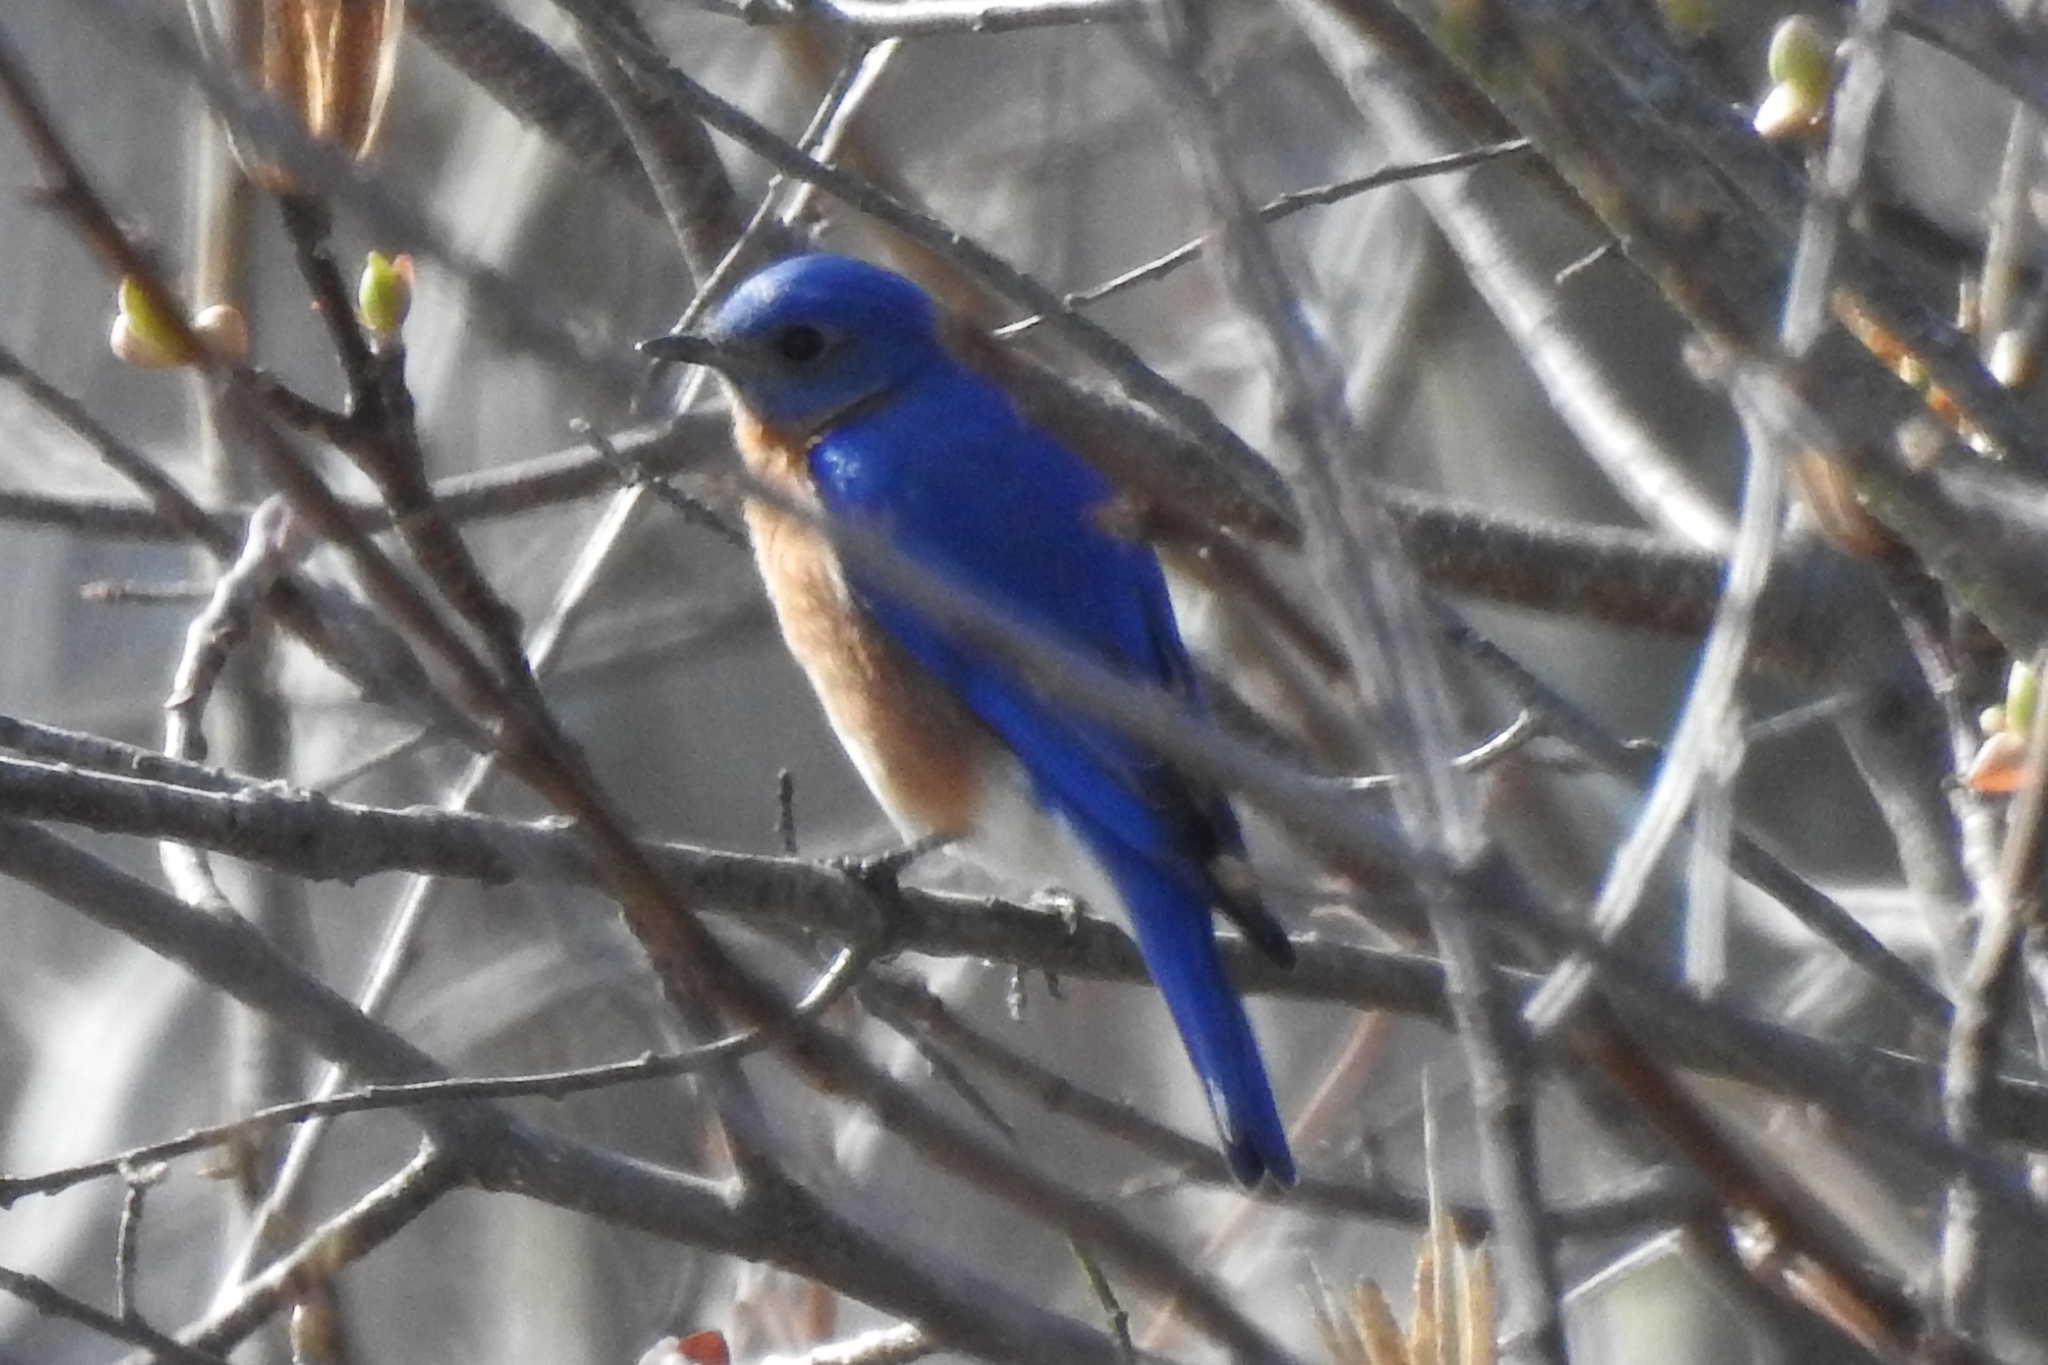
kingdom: Animalia
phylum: Chordata
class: Aves
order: Passeriformes
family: Turdidae
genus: Sialia
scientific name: Sialia sialis
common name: Eastern bluebird
